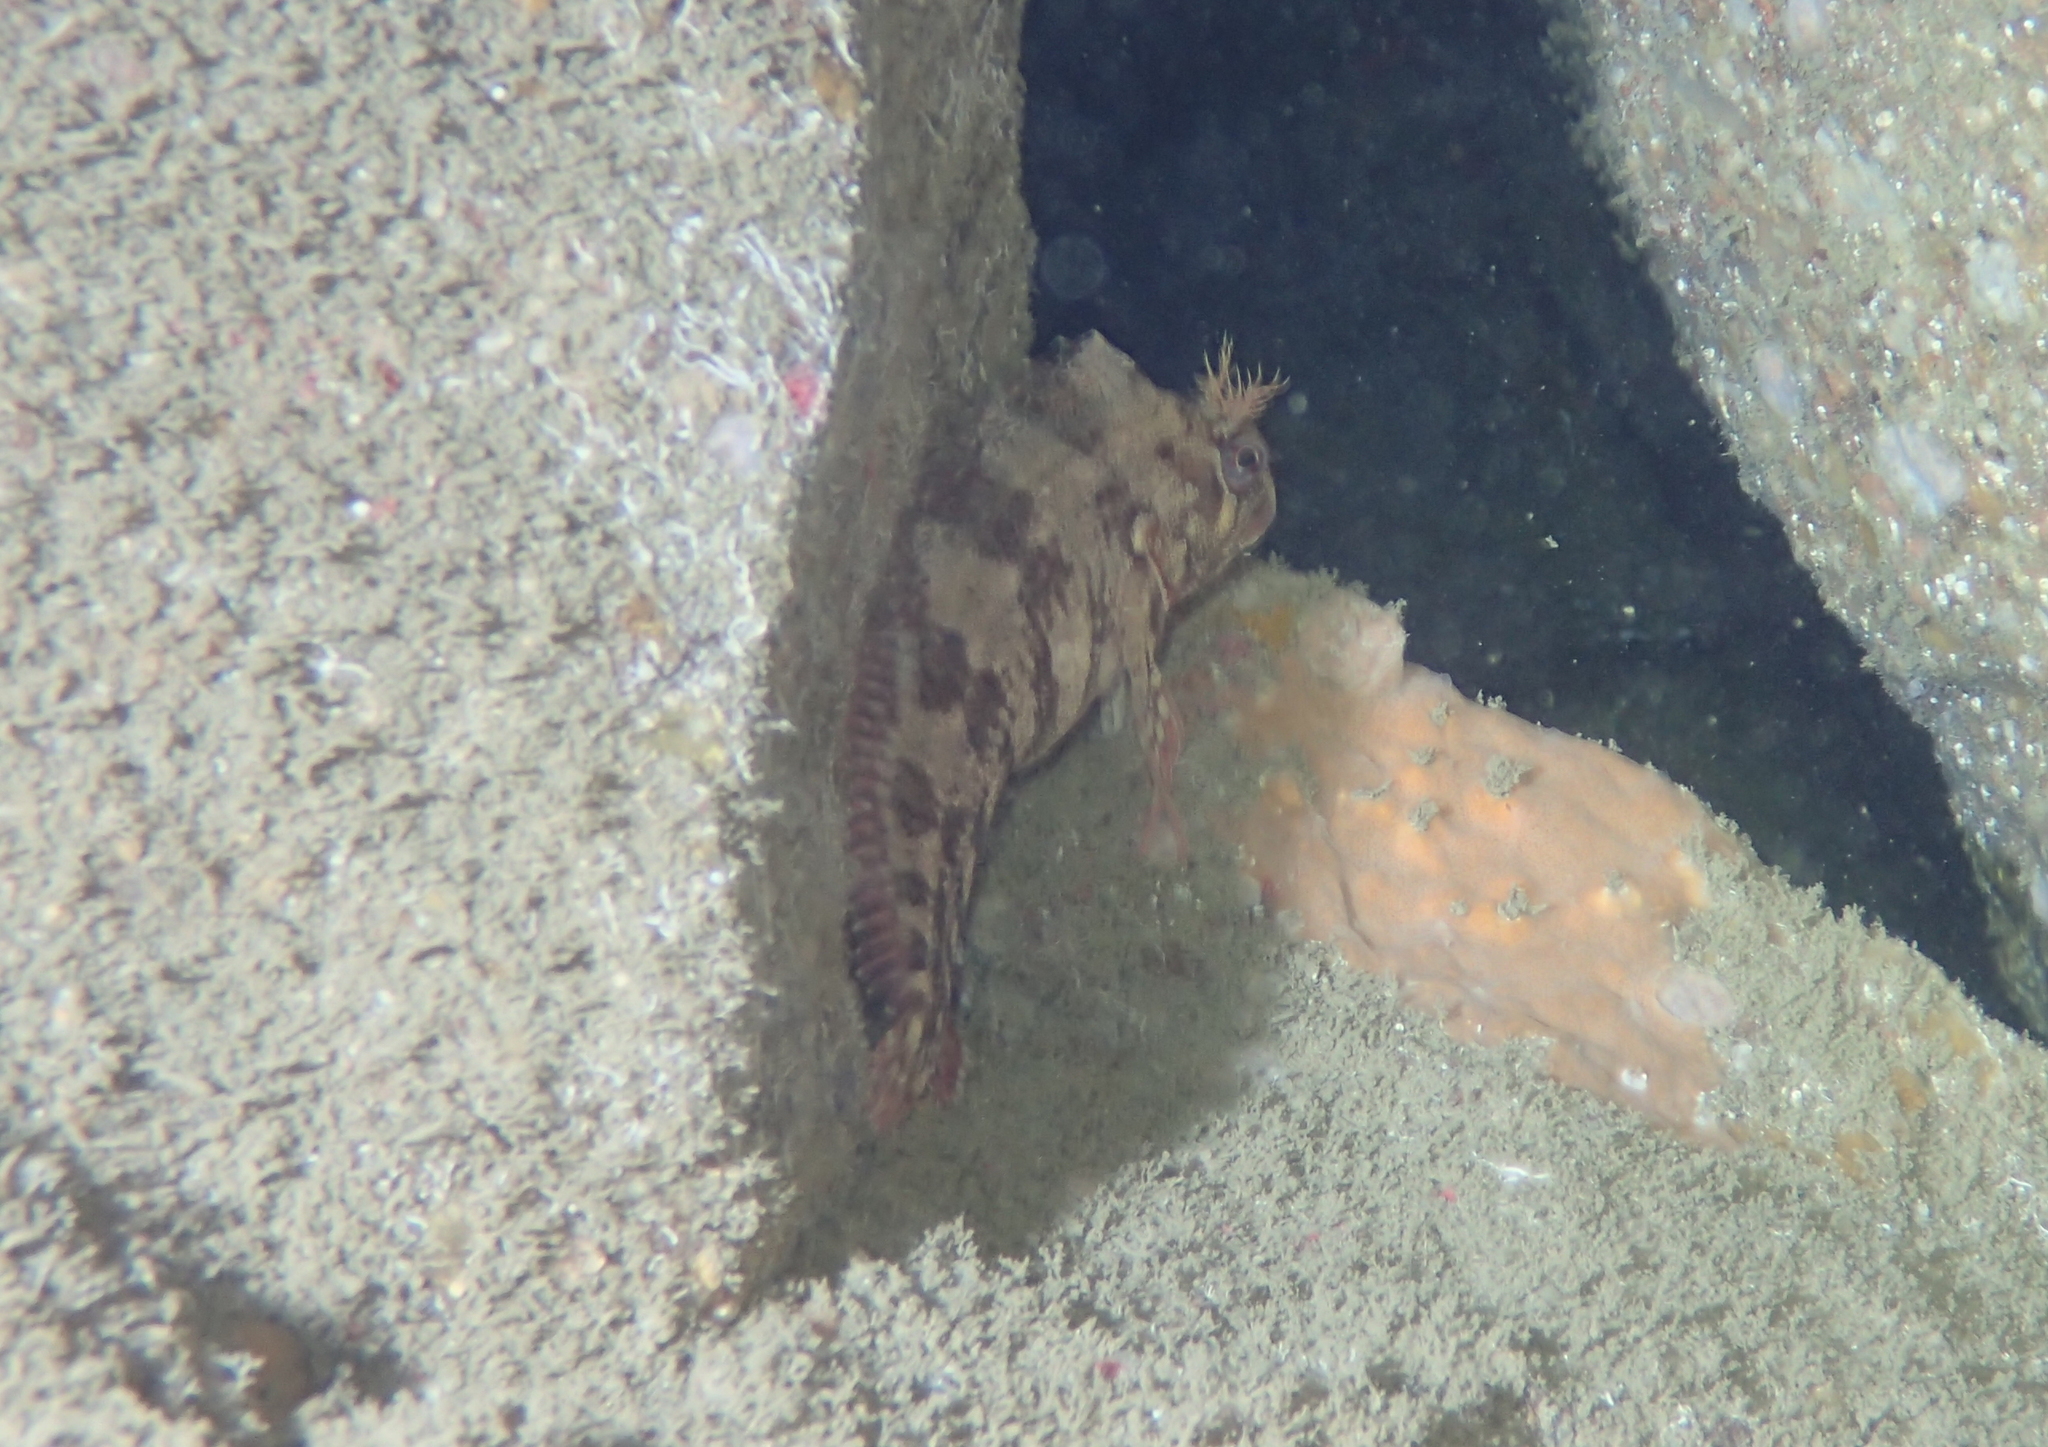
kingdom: Animalia
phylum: Chordata
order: Perciformes
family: Blenniidae
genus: Parablennius
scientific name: Parablennius gattorugine
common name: Tompot blenny
